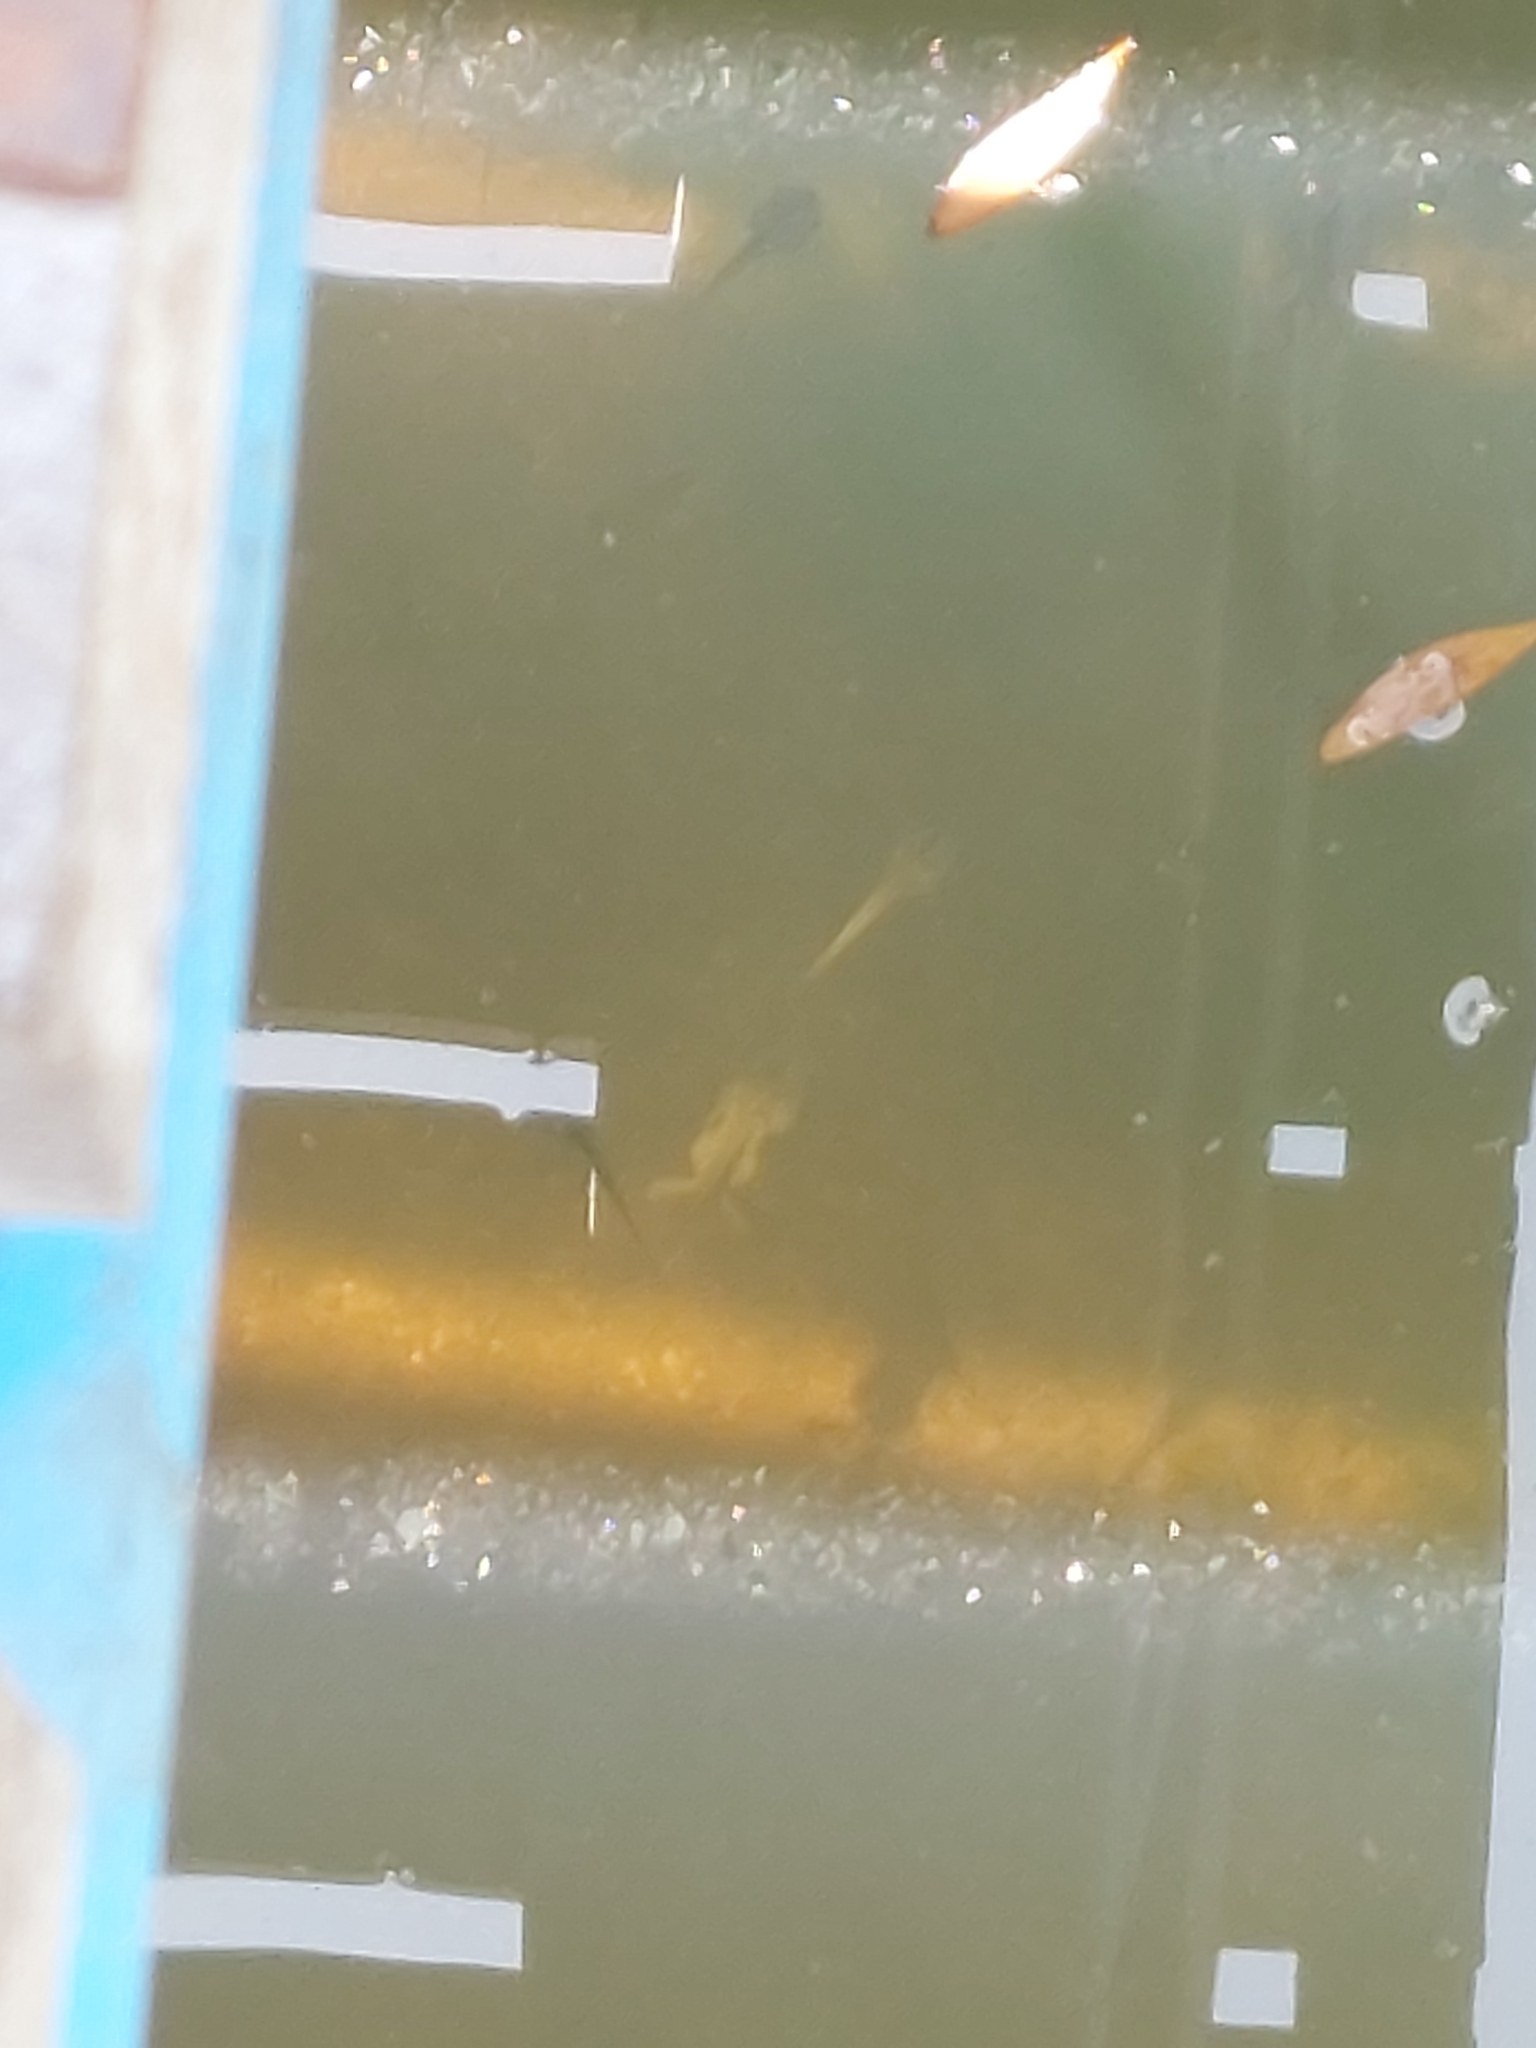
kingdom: Animalia
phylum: Chordata
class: Amphibia
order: Anura
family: Pipidae
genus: Xenopus
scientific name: Xenopus laevis
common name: African clawed frog
